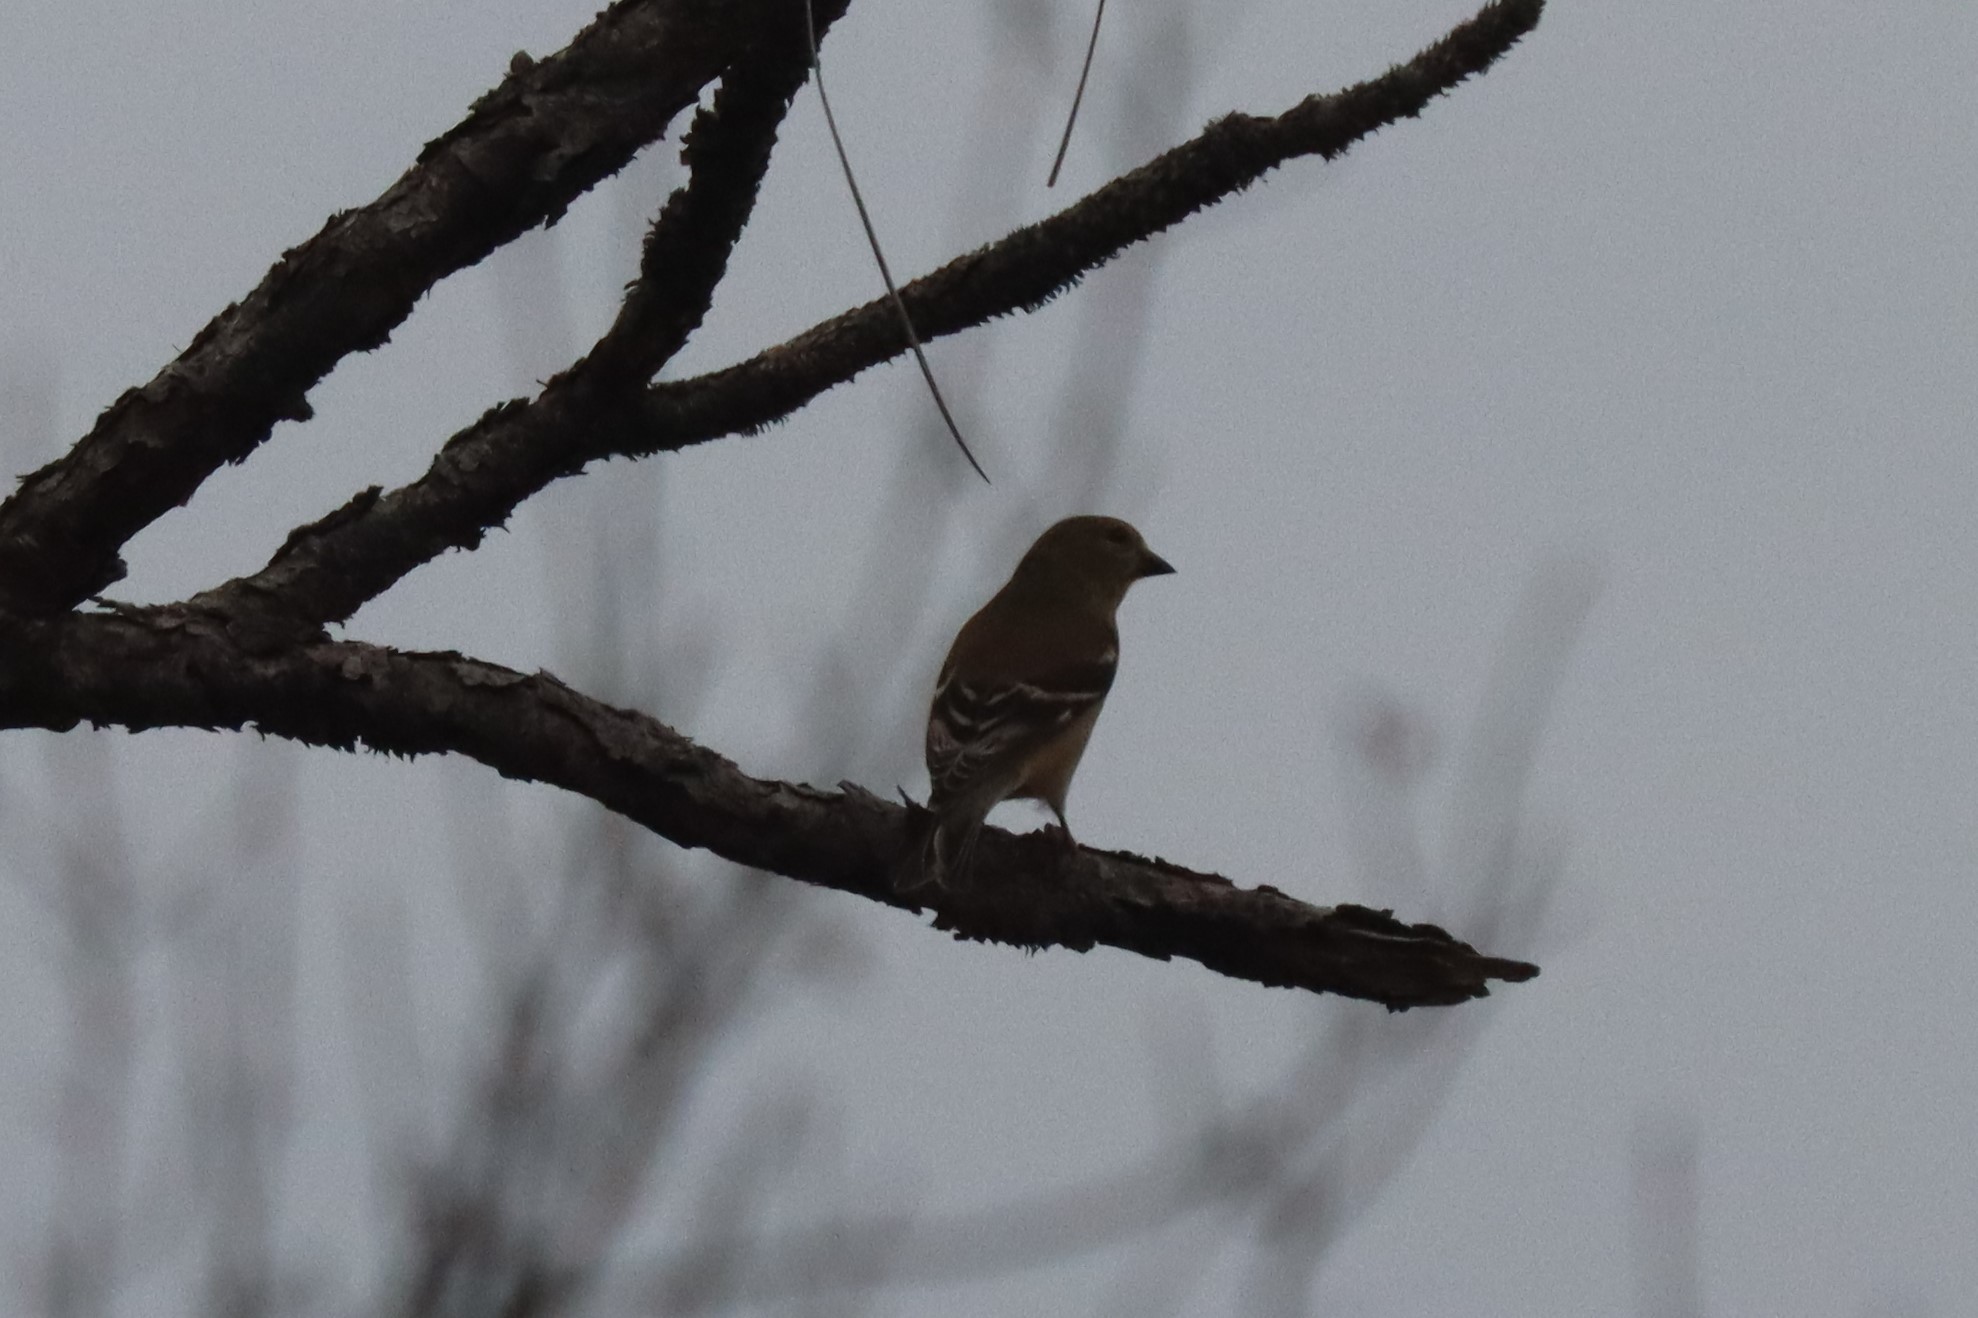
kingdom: Animalia
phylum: Chordata
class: Aves
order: Passeriformes
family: Fringillidae
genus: Spinus
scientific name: Spinus tristis
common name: American goldfinch
